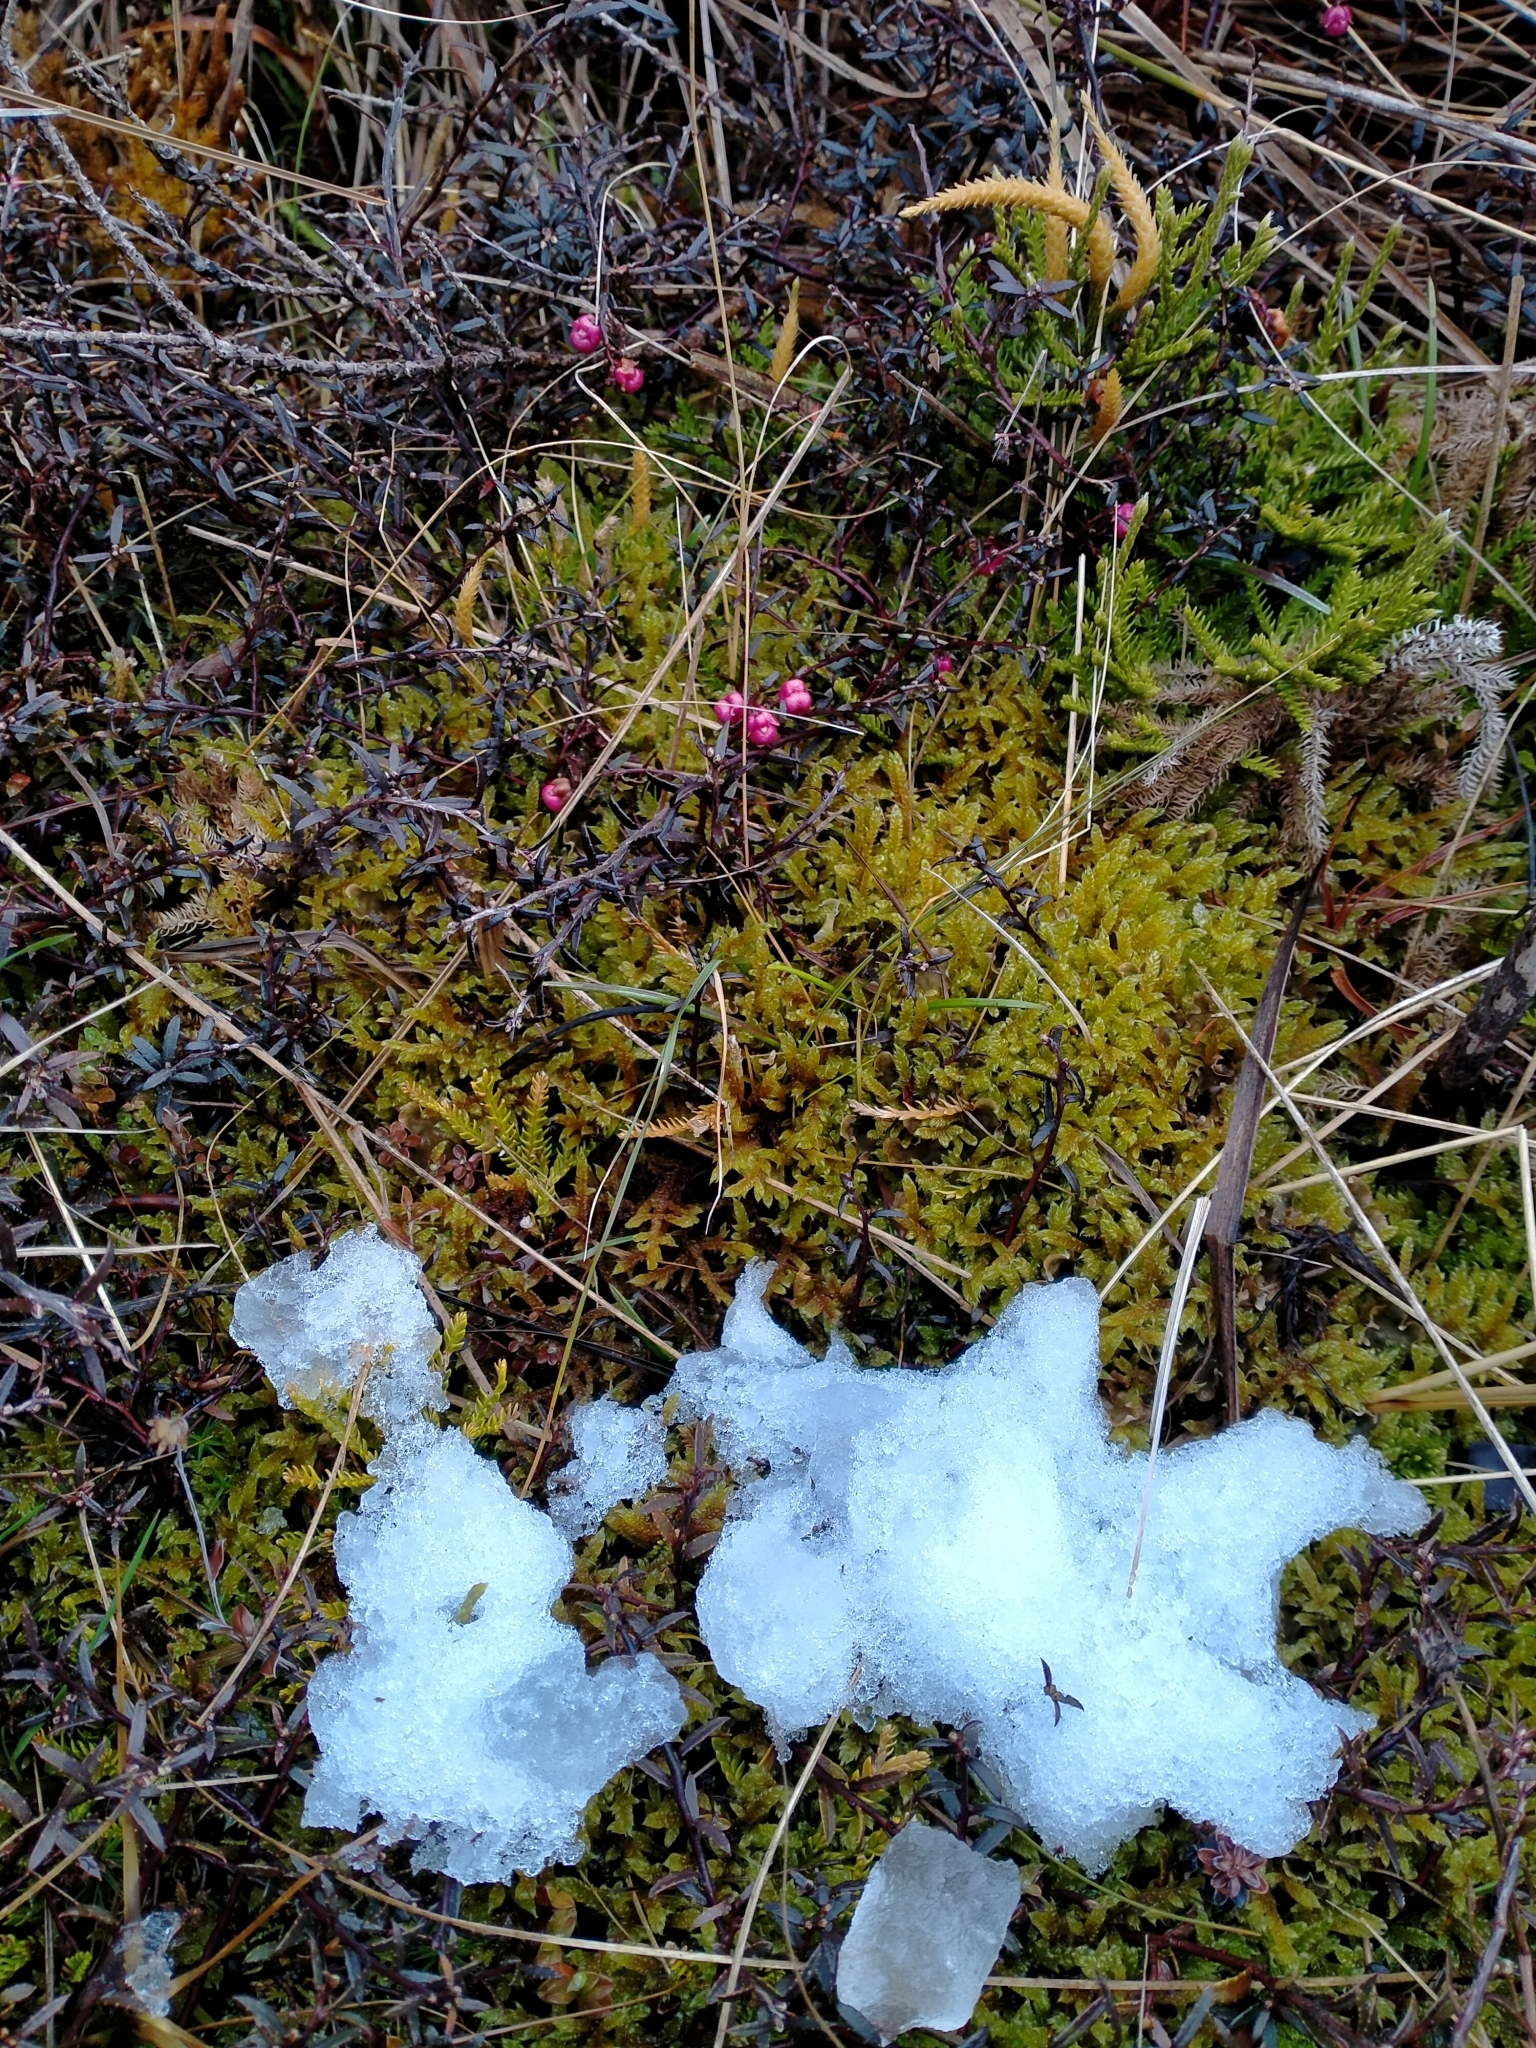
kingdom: Plantae
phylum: Tracheophyta
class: Magnoliopsida
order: Ericales
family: Ericaceae
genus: Gaultheria
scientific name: Gaultheria macrostigma
